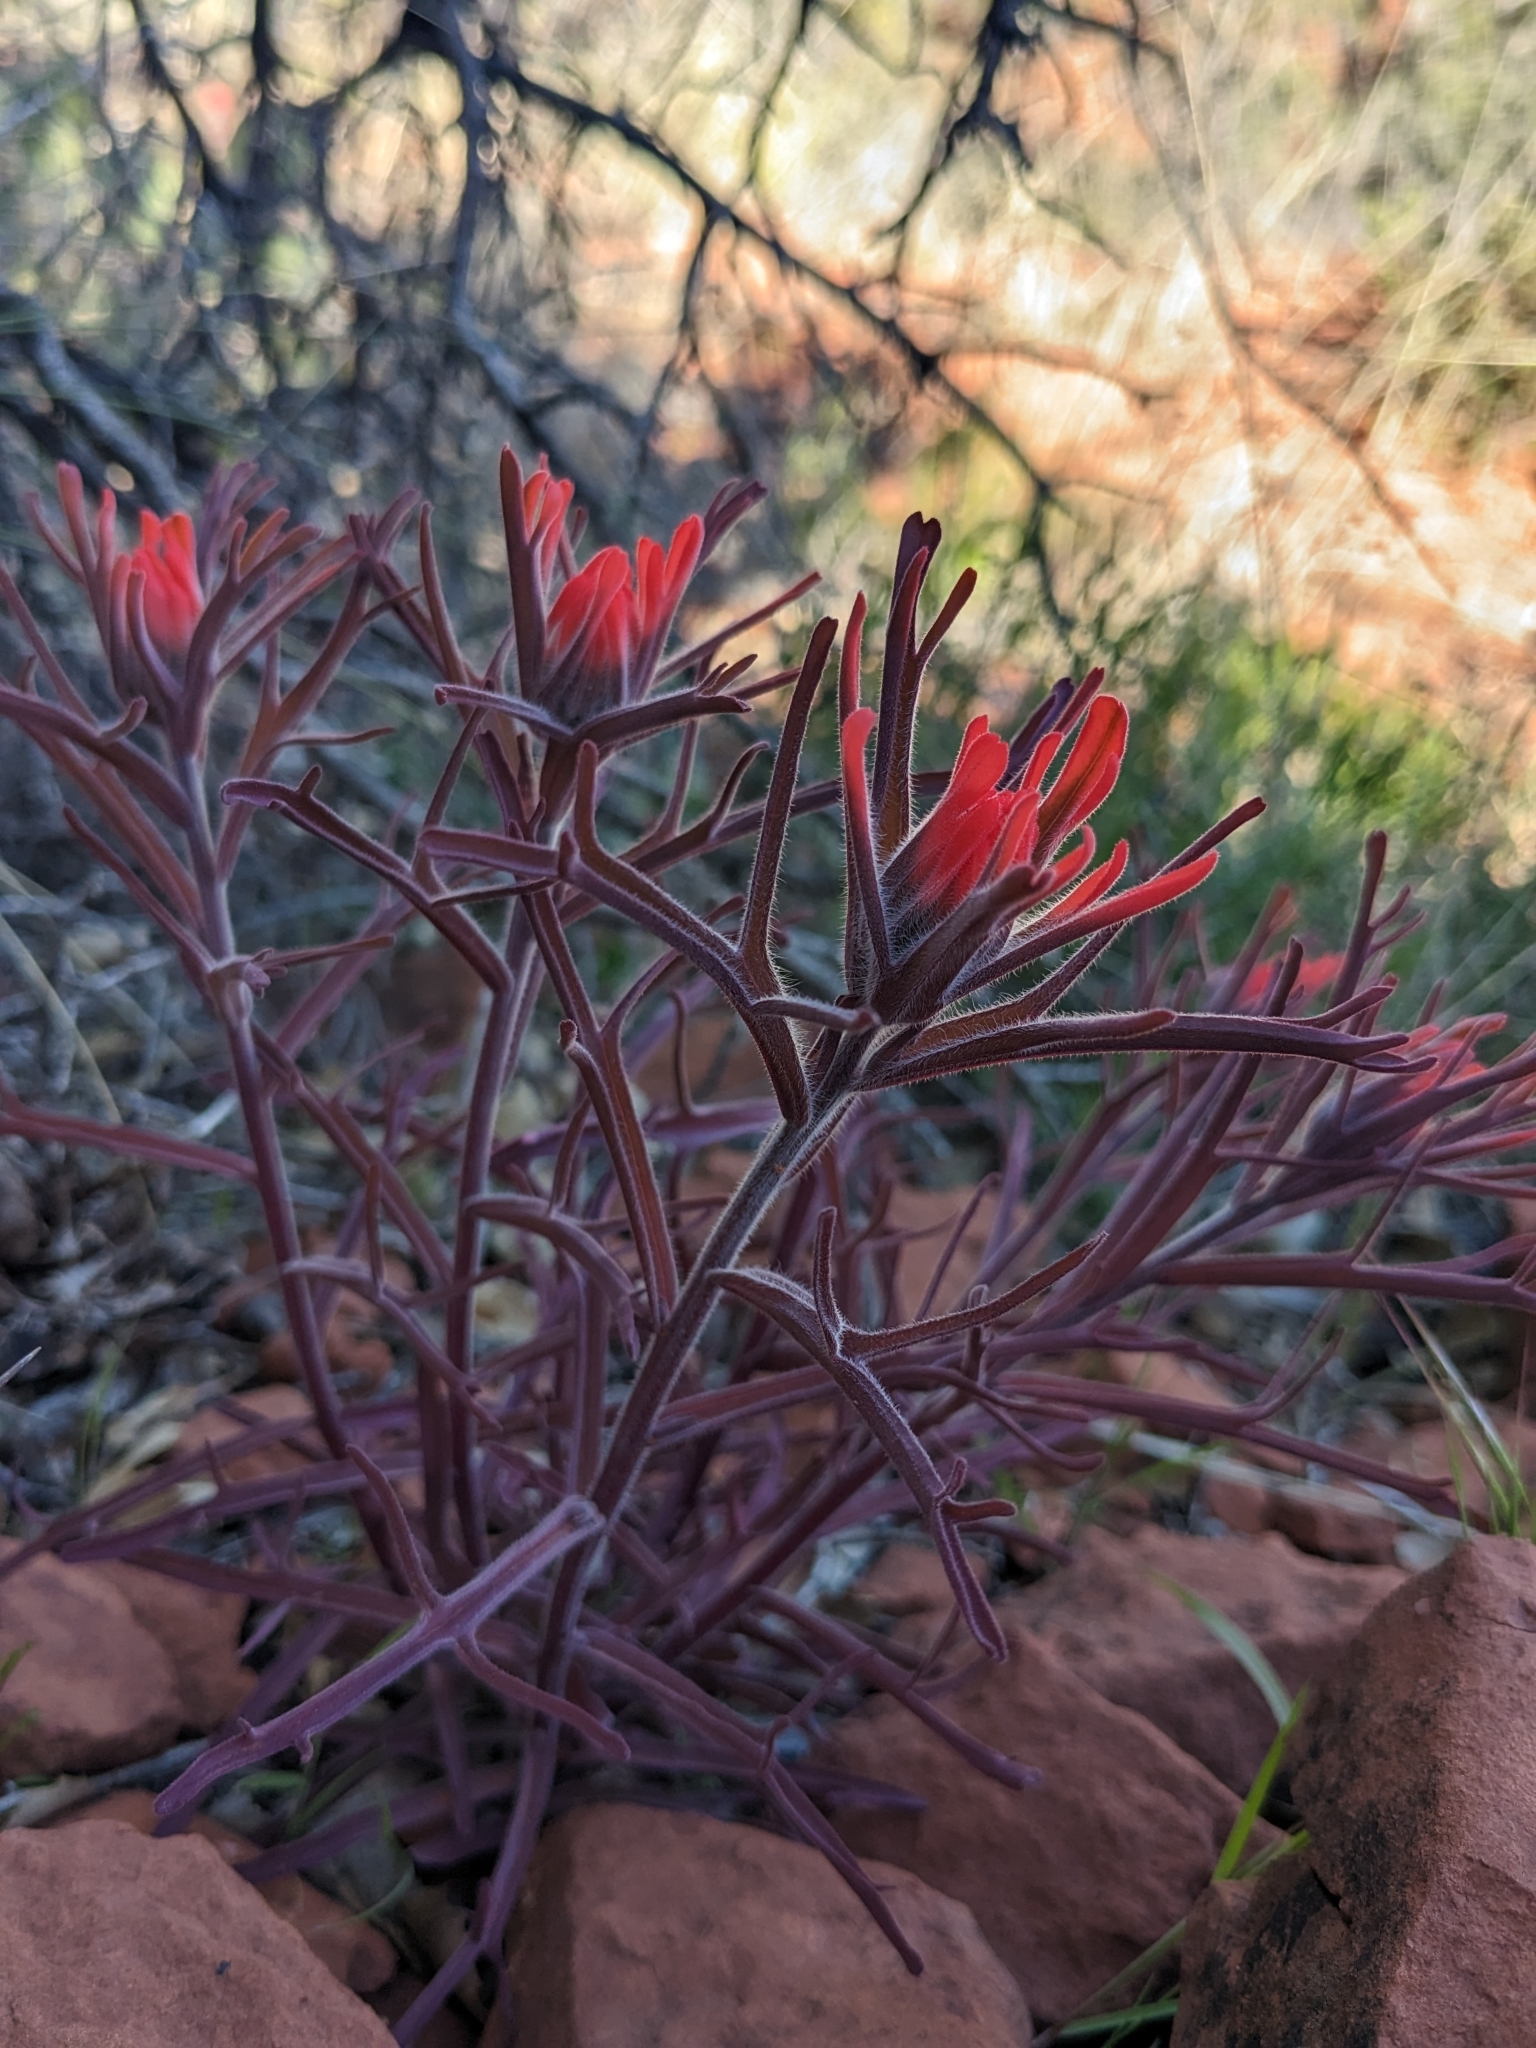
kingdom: Plantae
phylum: Tracheophyta
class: Magnoliopsida
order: Lamiales
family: Orobanchaceae
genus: Castilleja
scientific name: Castilleja chromosa
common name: Desert paintbrush
